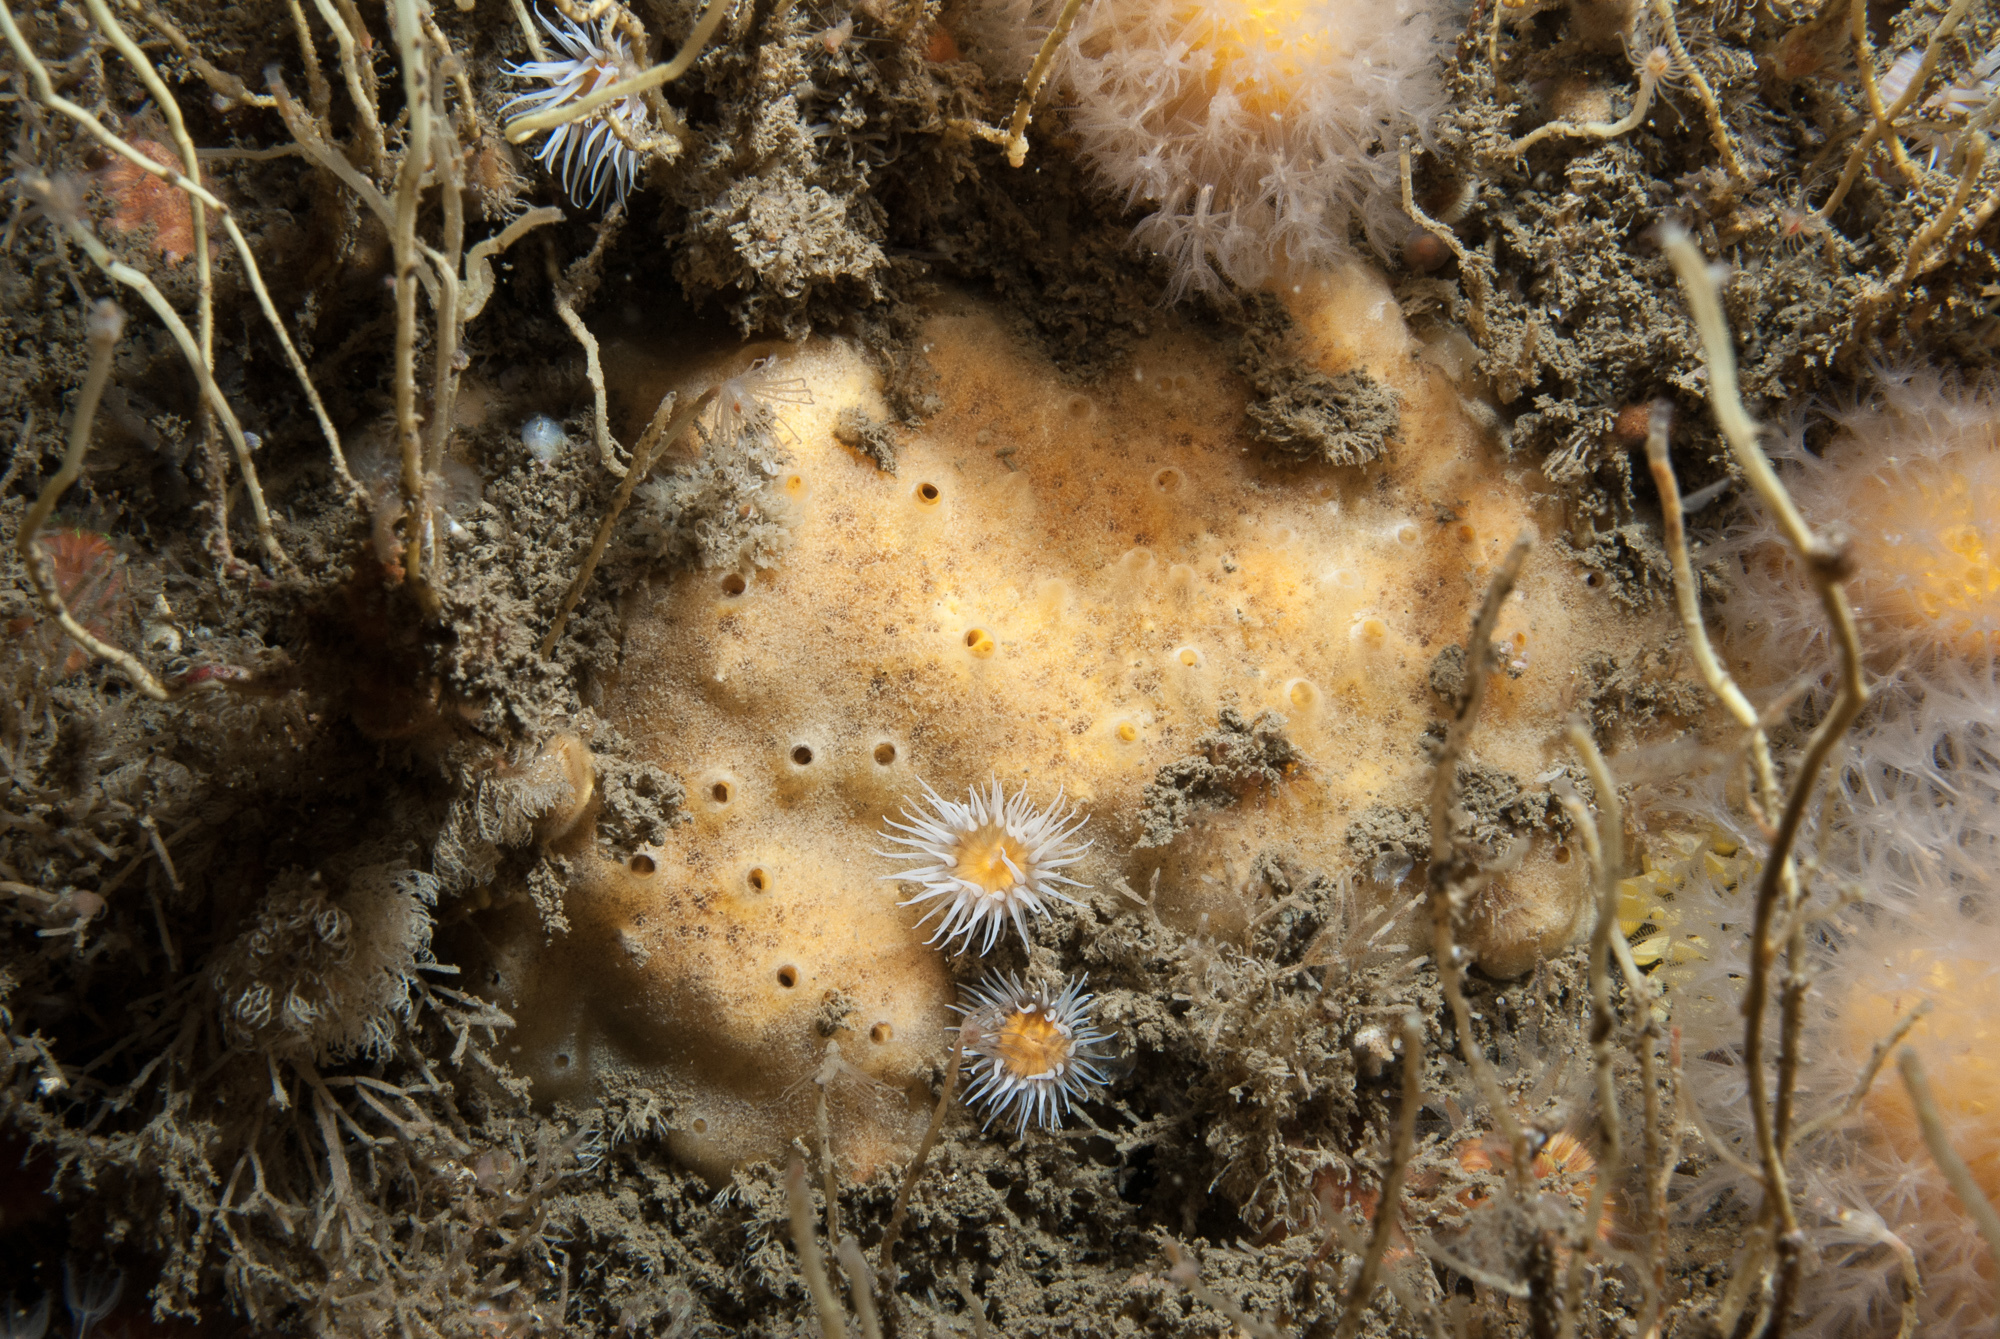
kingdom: Animalia
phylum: Porifera
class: Demospongiae
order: Poecilosclerida
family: Myxillidae
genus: Myxilla
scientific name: Myxilla fimbriata
